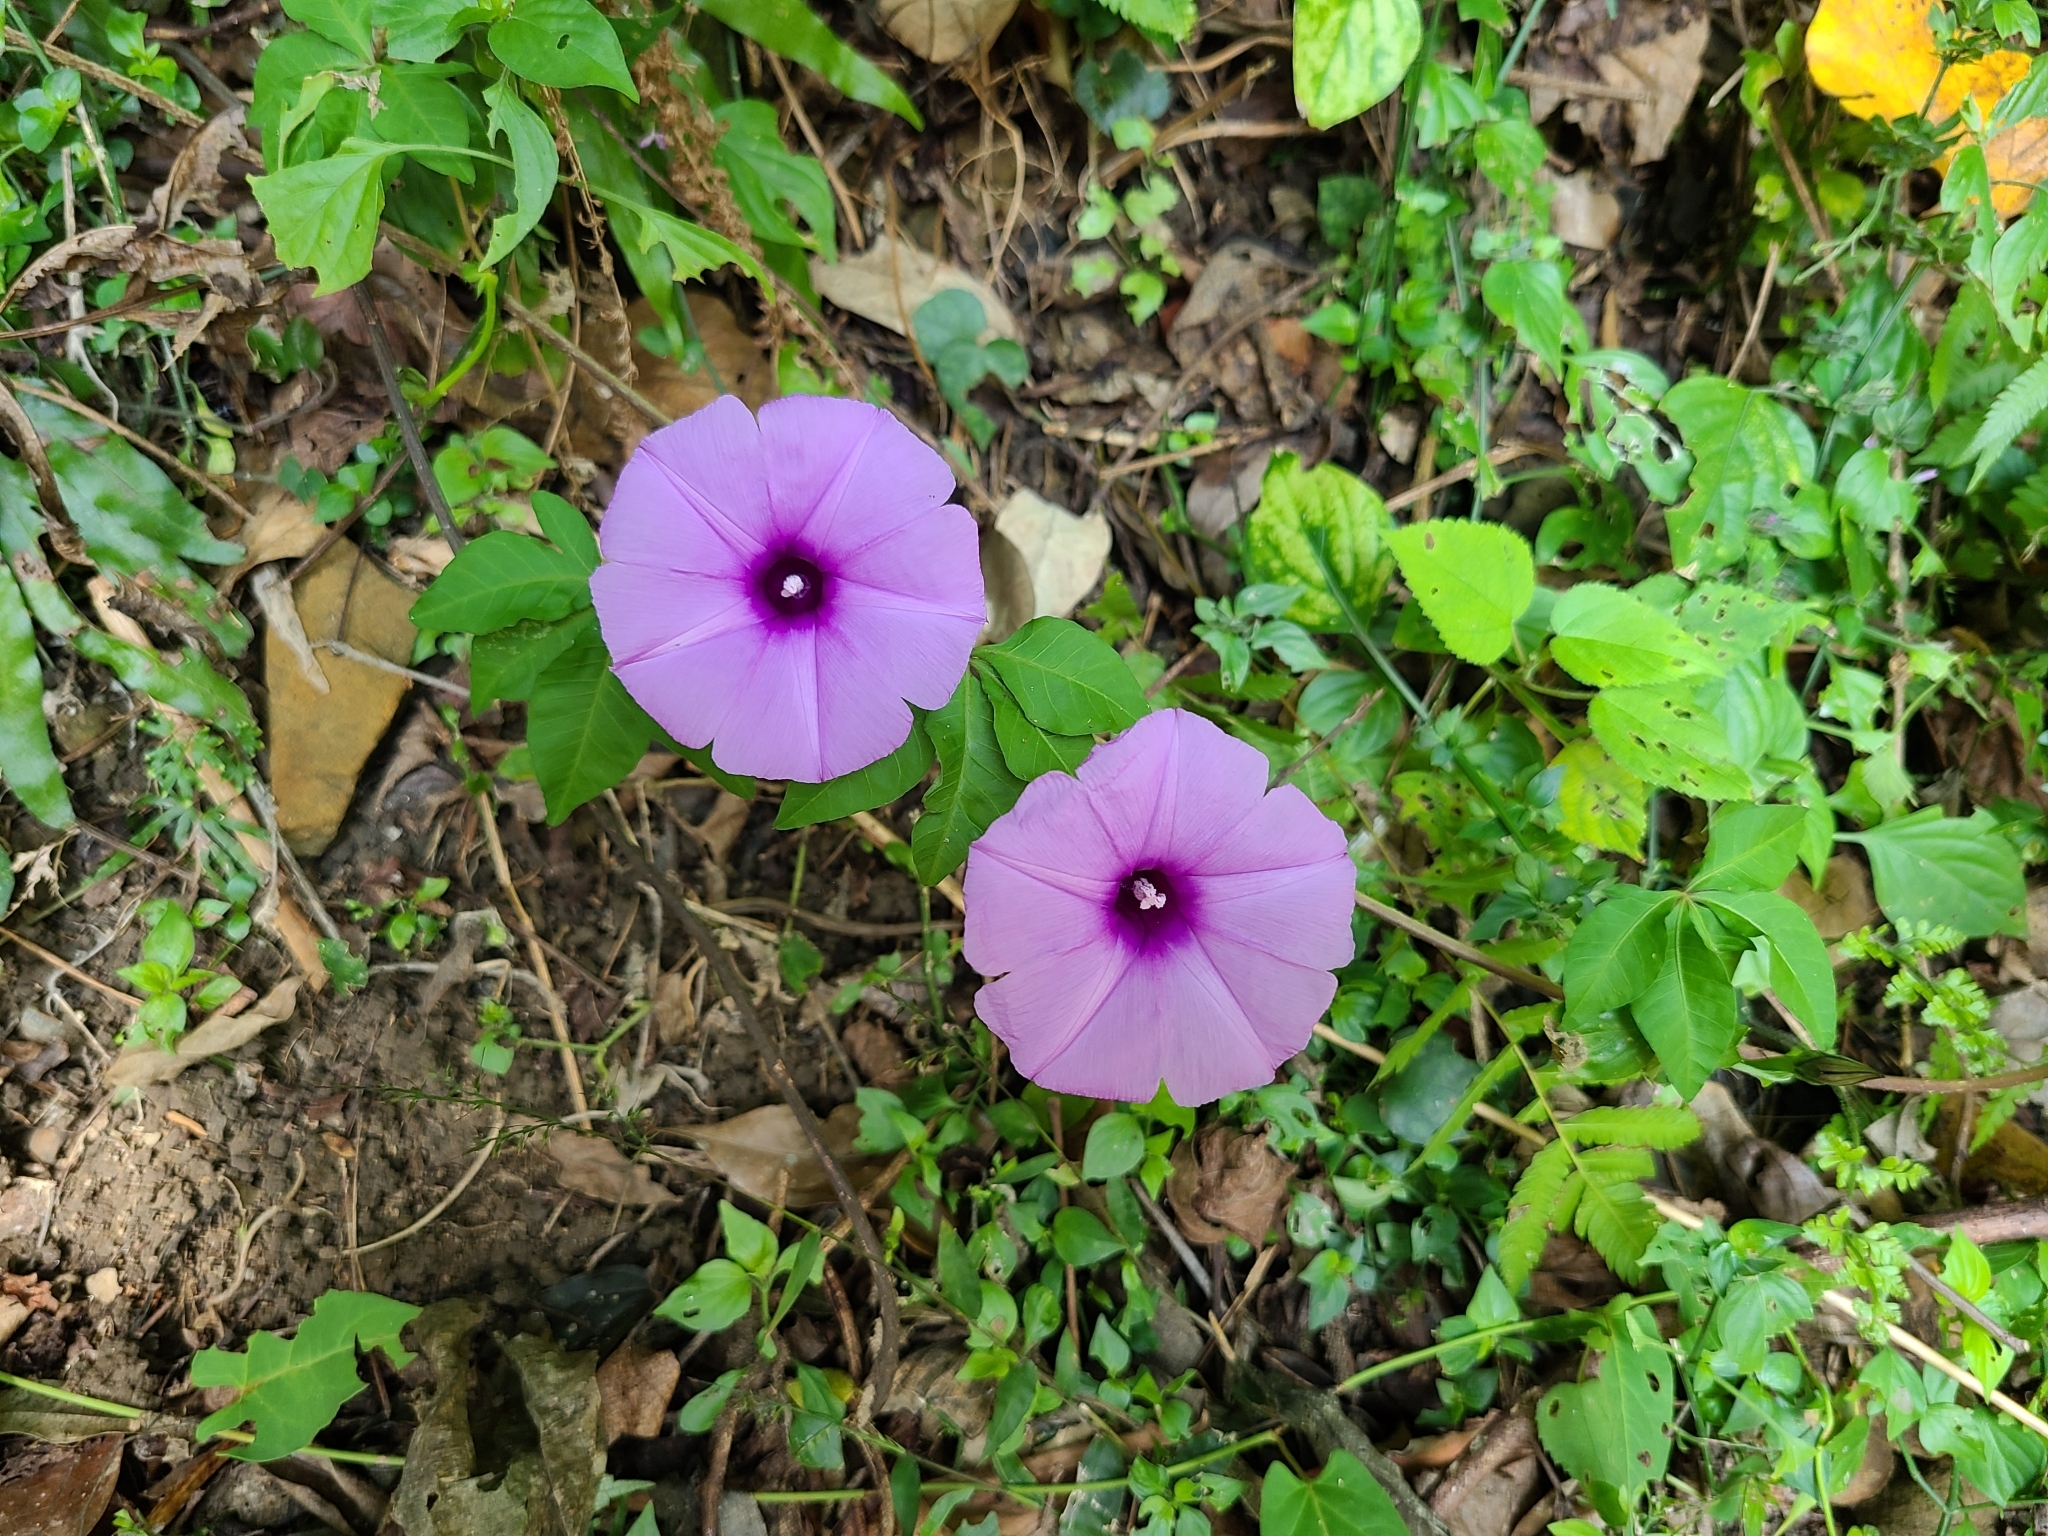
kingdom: Plantae
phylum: Tracheophyta
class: Magnoliopsida
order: Solanales
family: Convolvulaceae
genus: Ipomoea
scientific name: Ipomoea cairica
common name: Mile a minute vine
